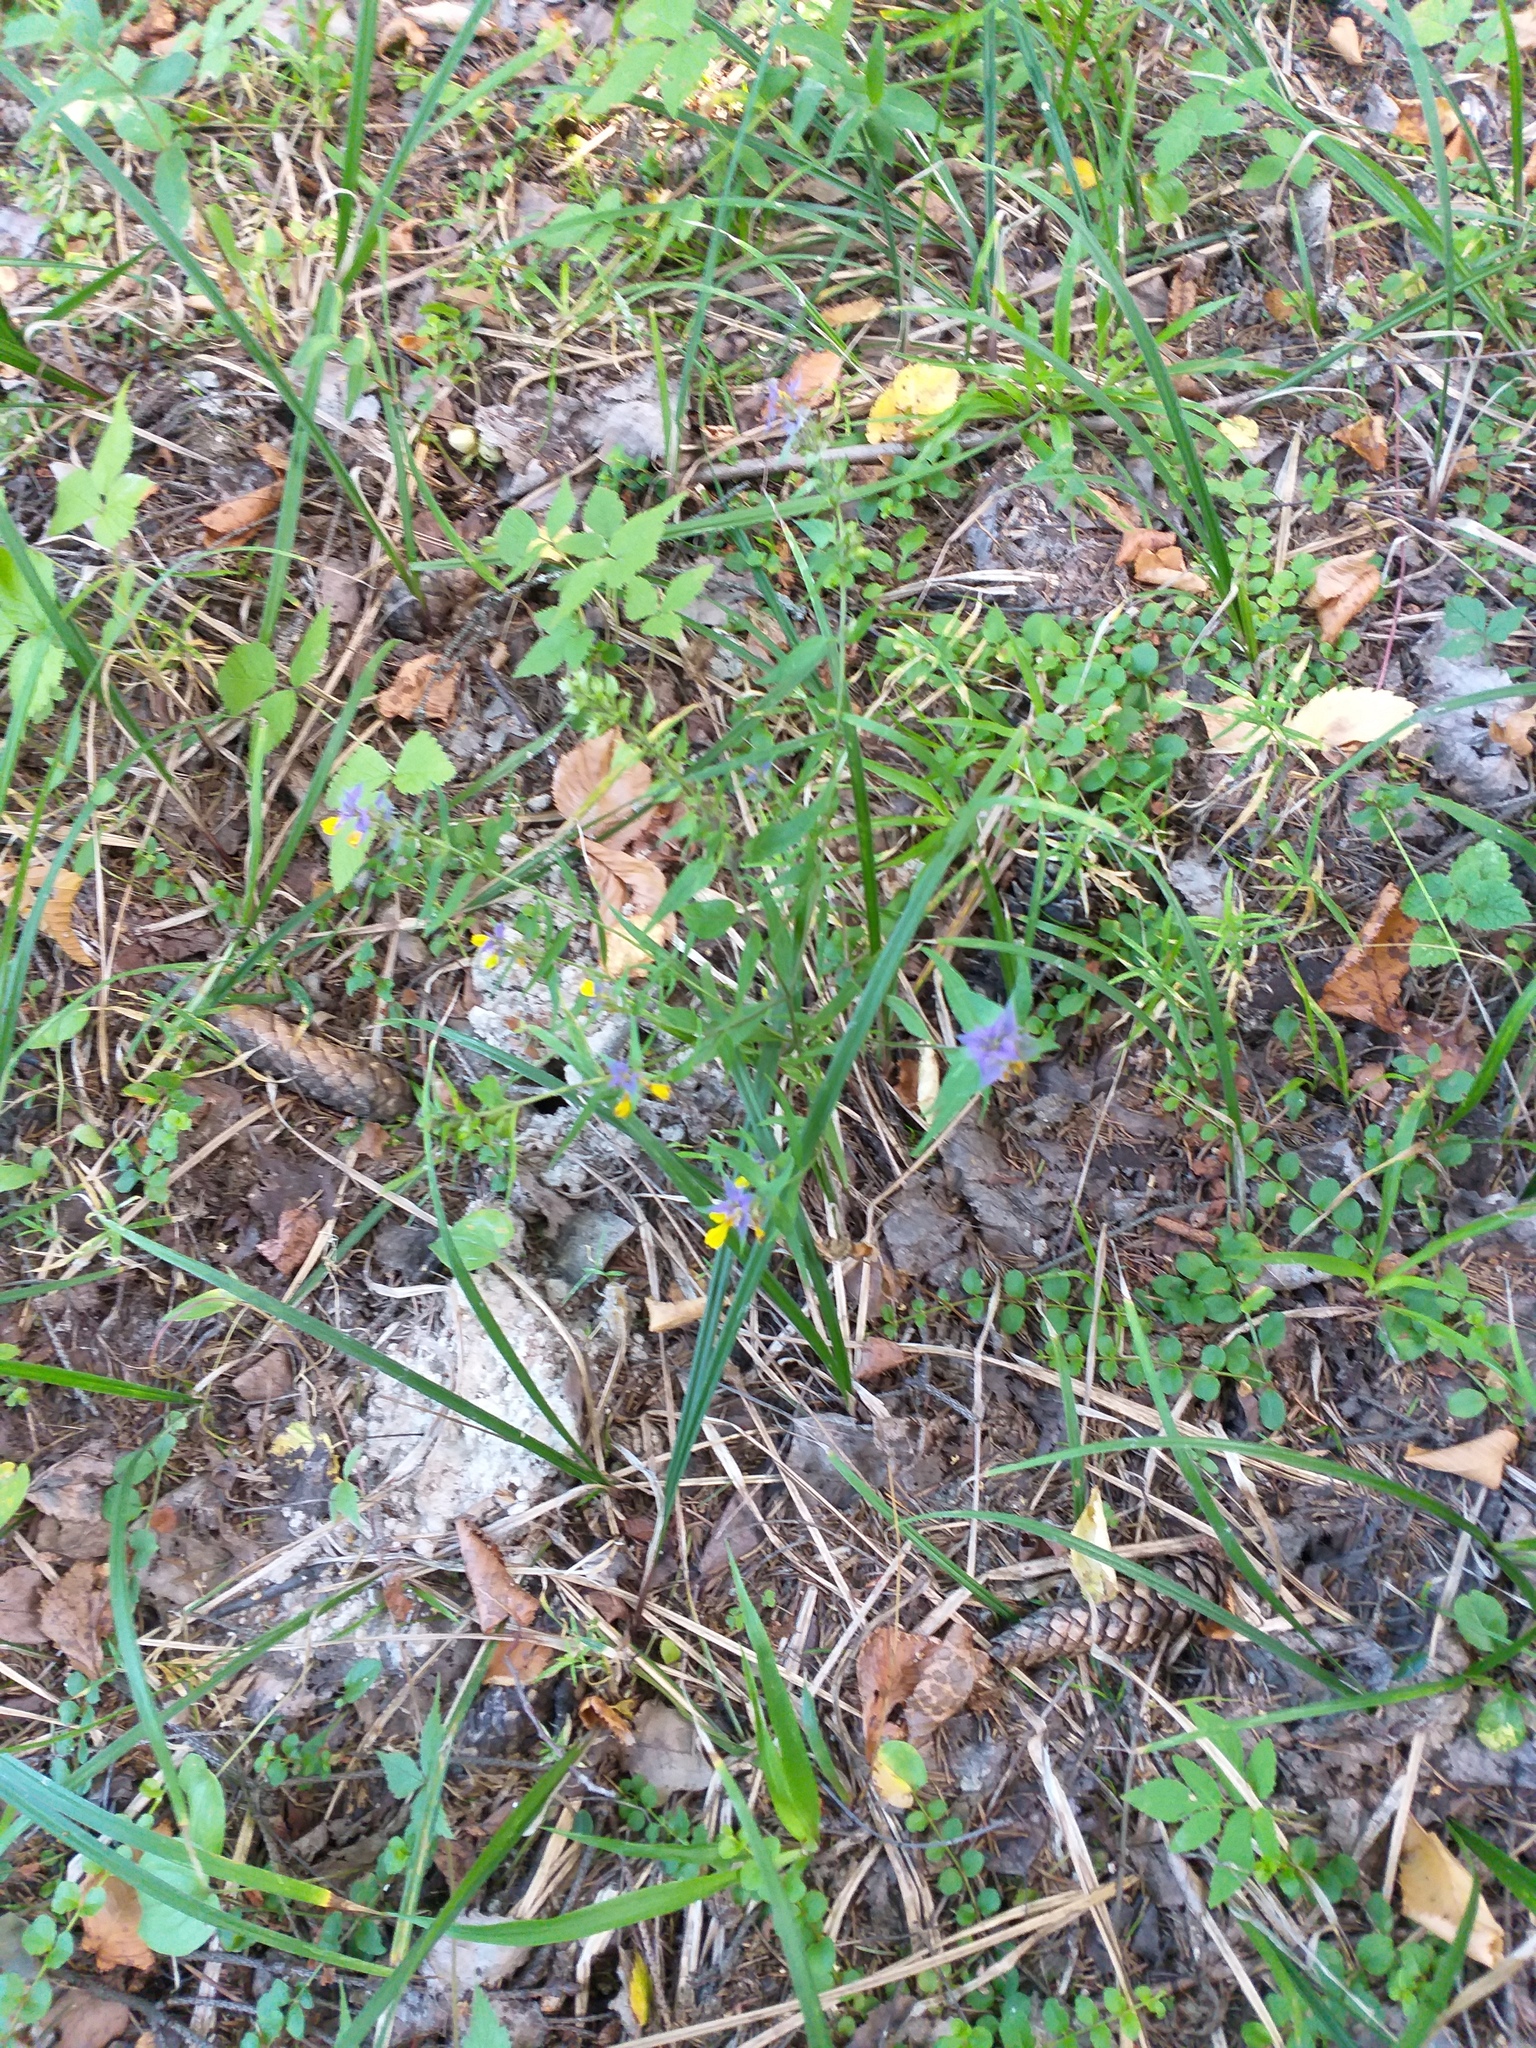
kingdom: Plantae
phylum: Tracheophyta
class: Magnoliopsida
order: Lamiales
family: Orobanchaceae
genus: Melampyrum
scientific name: Melampyrum nemorosum
